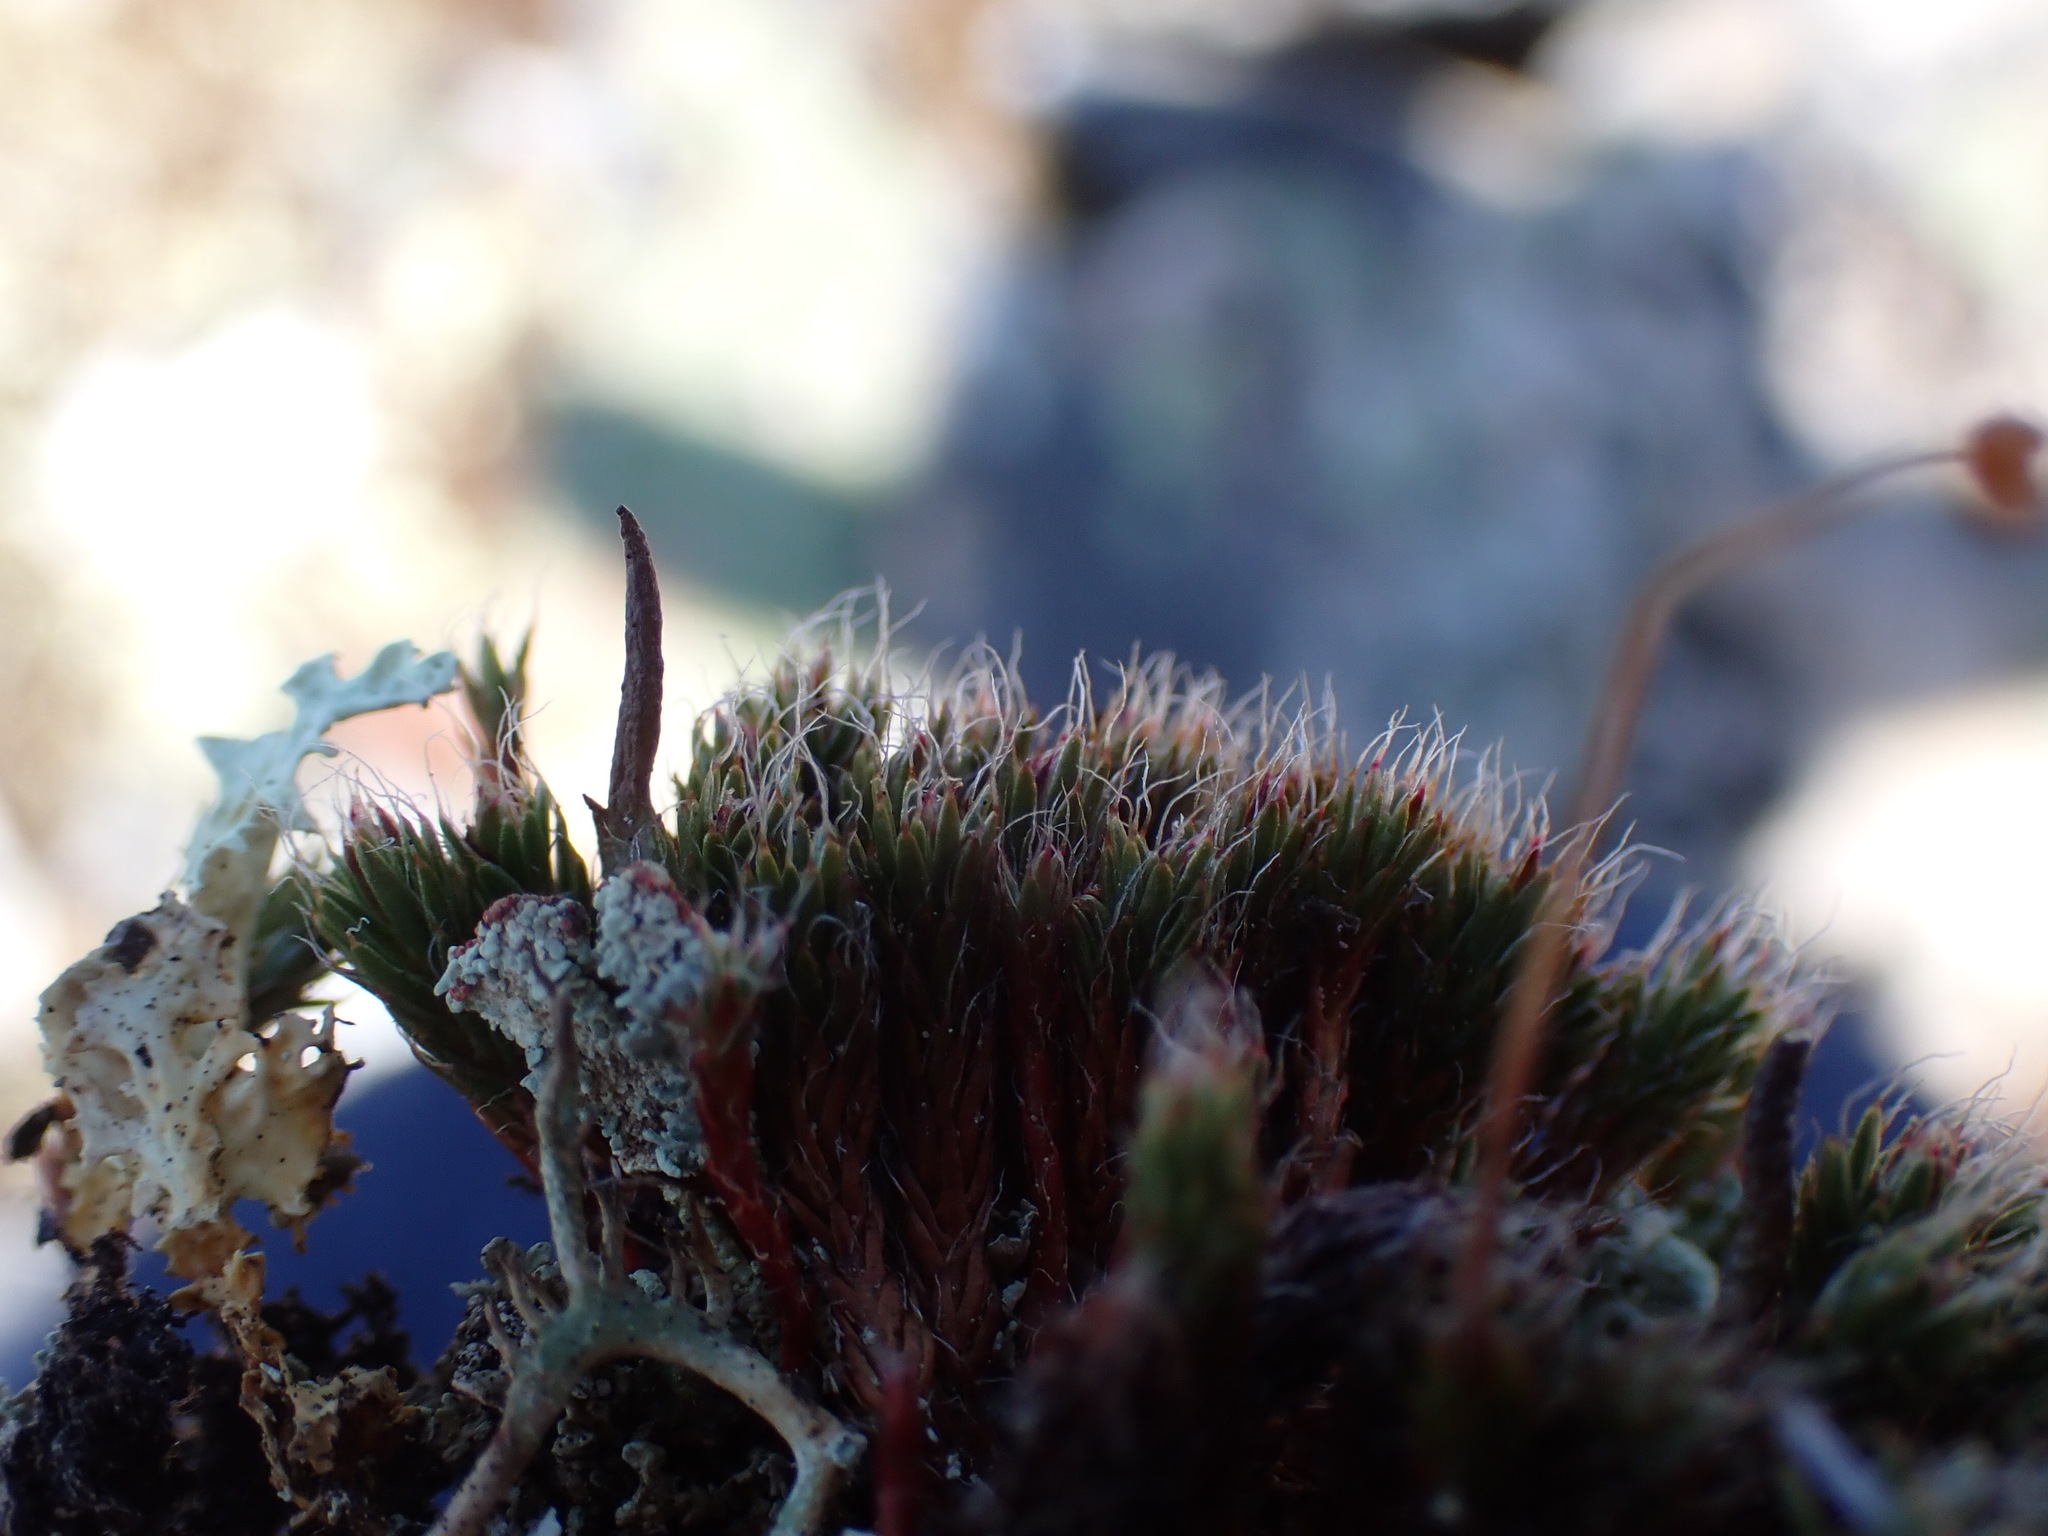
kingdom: Plantae
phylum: Bryophyta
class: Polytrichopsida
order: Polytrichales
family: Polytrichaceae
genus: Polytrichum
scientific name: Polytrichum piliferum
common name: Bristly haircap
